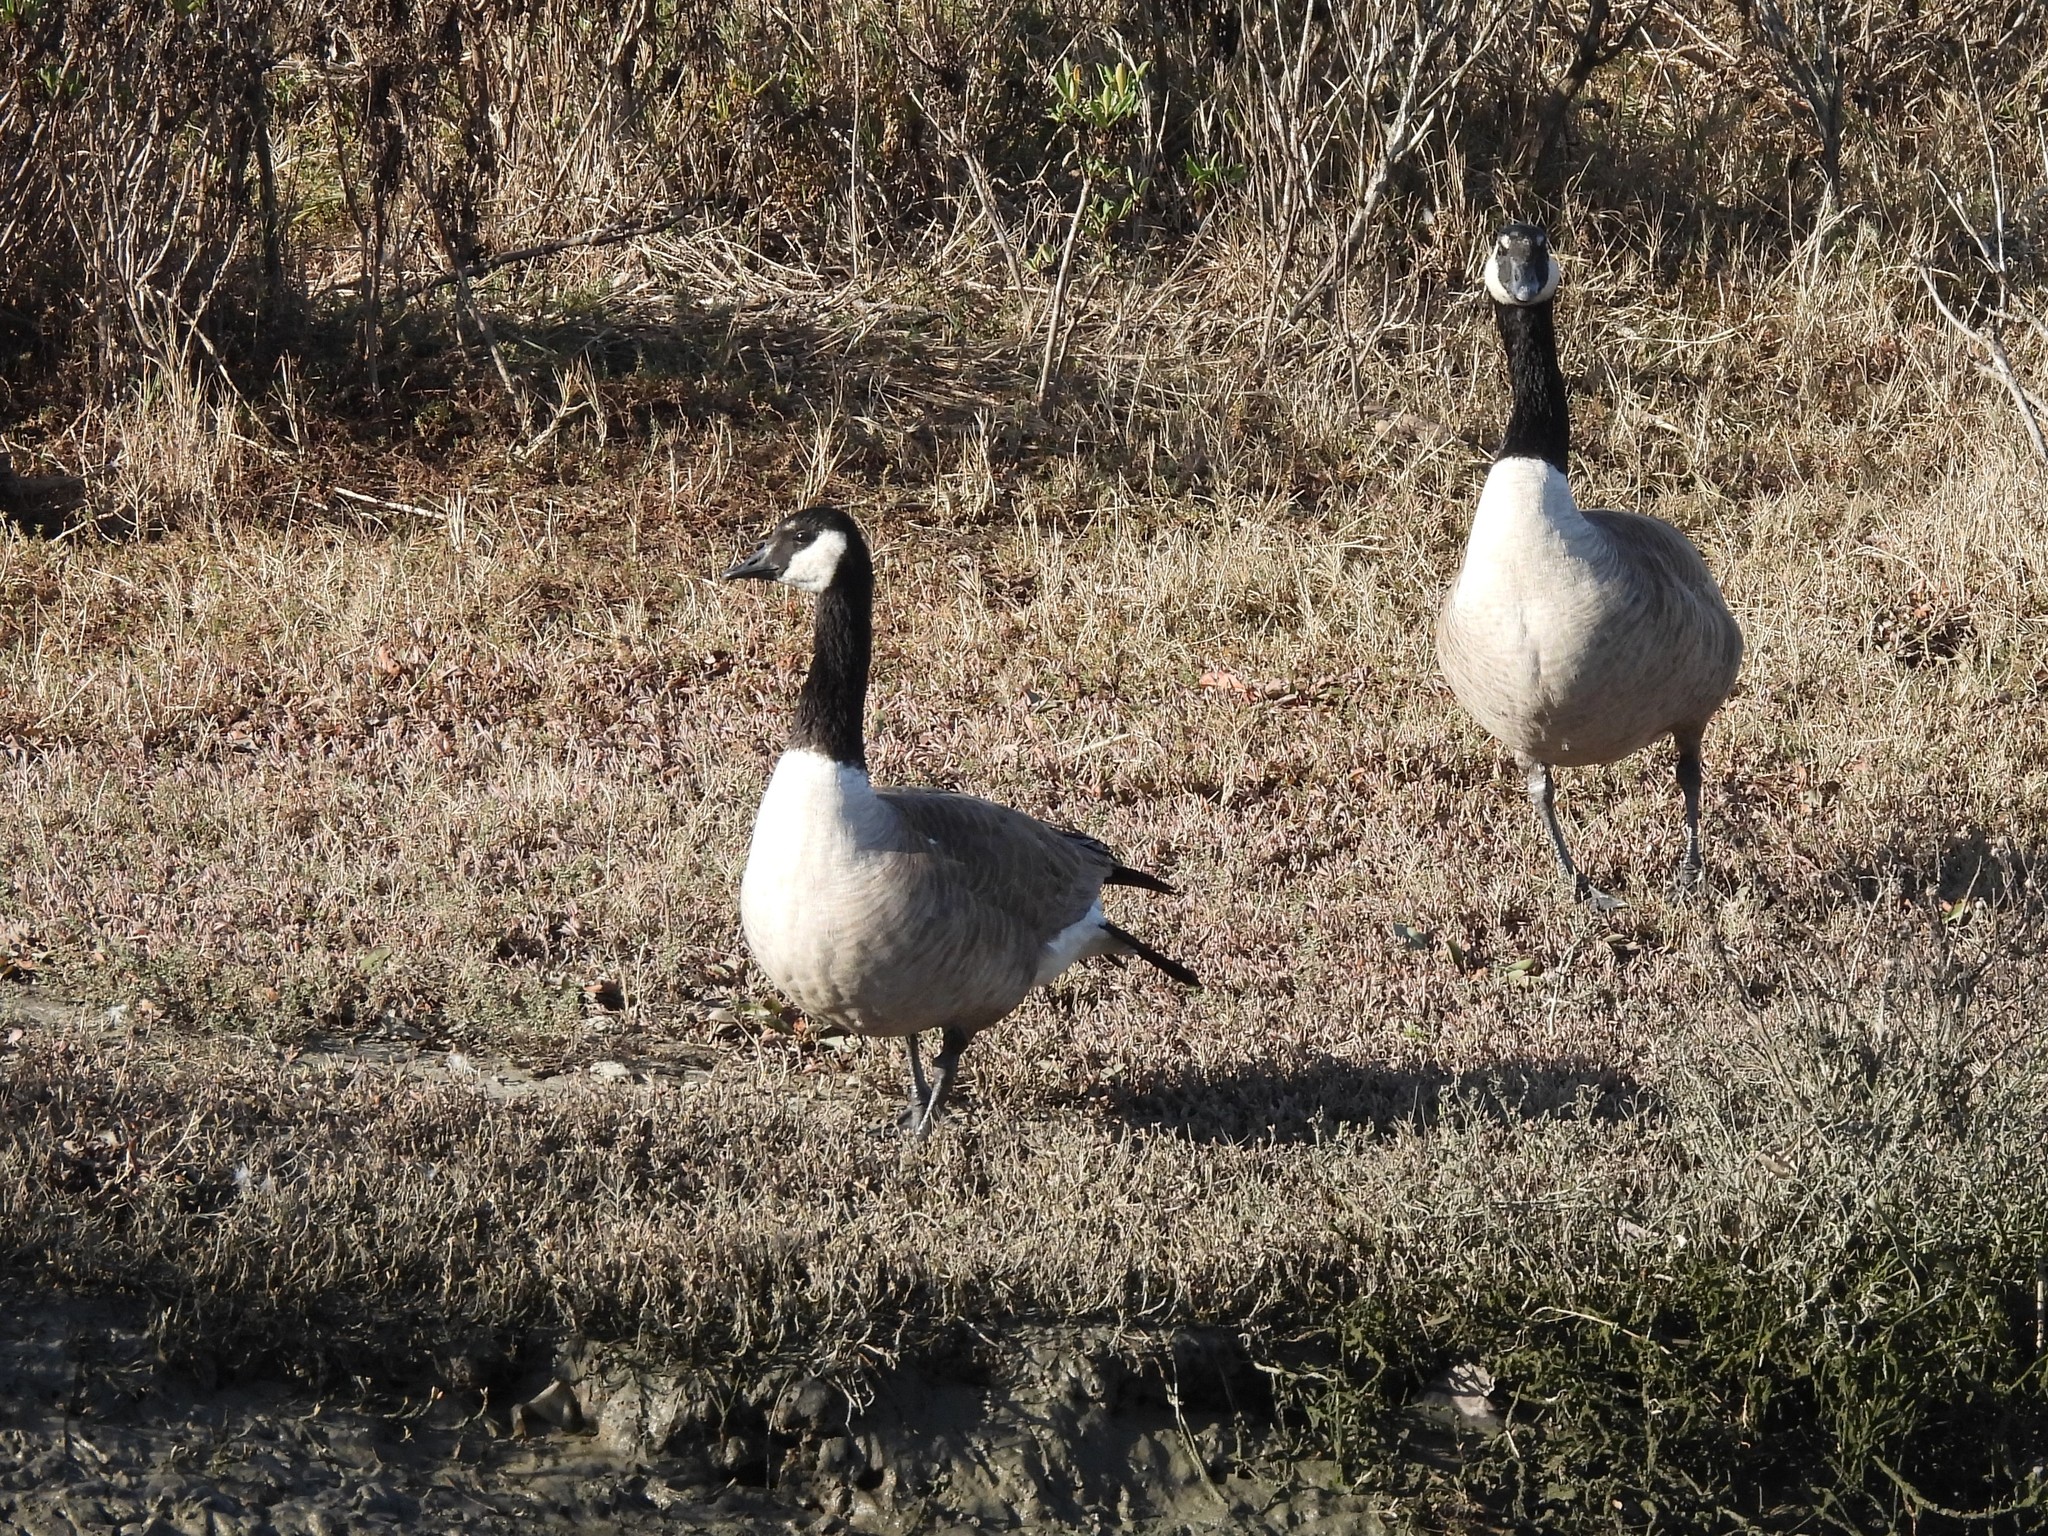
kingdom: Animalia
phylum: Chordata
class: Aves
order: Anseriformes
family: Anatidae
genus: Branta
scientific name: Branta canadensis
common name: Canada goose
